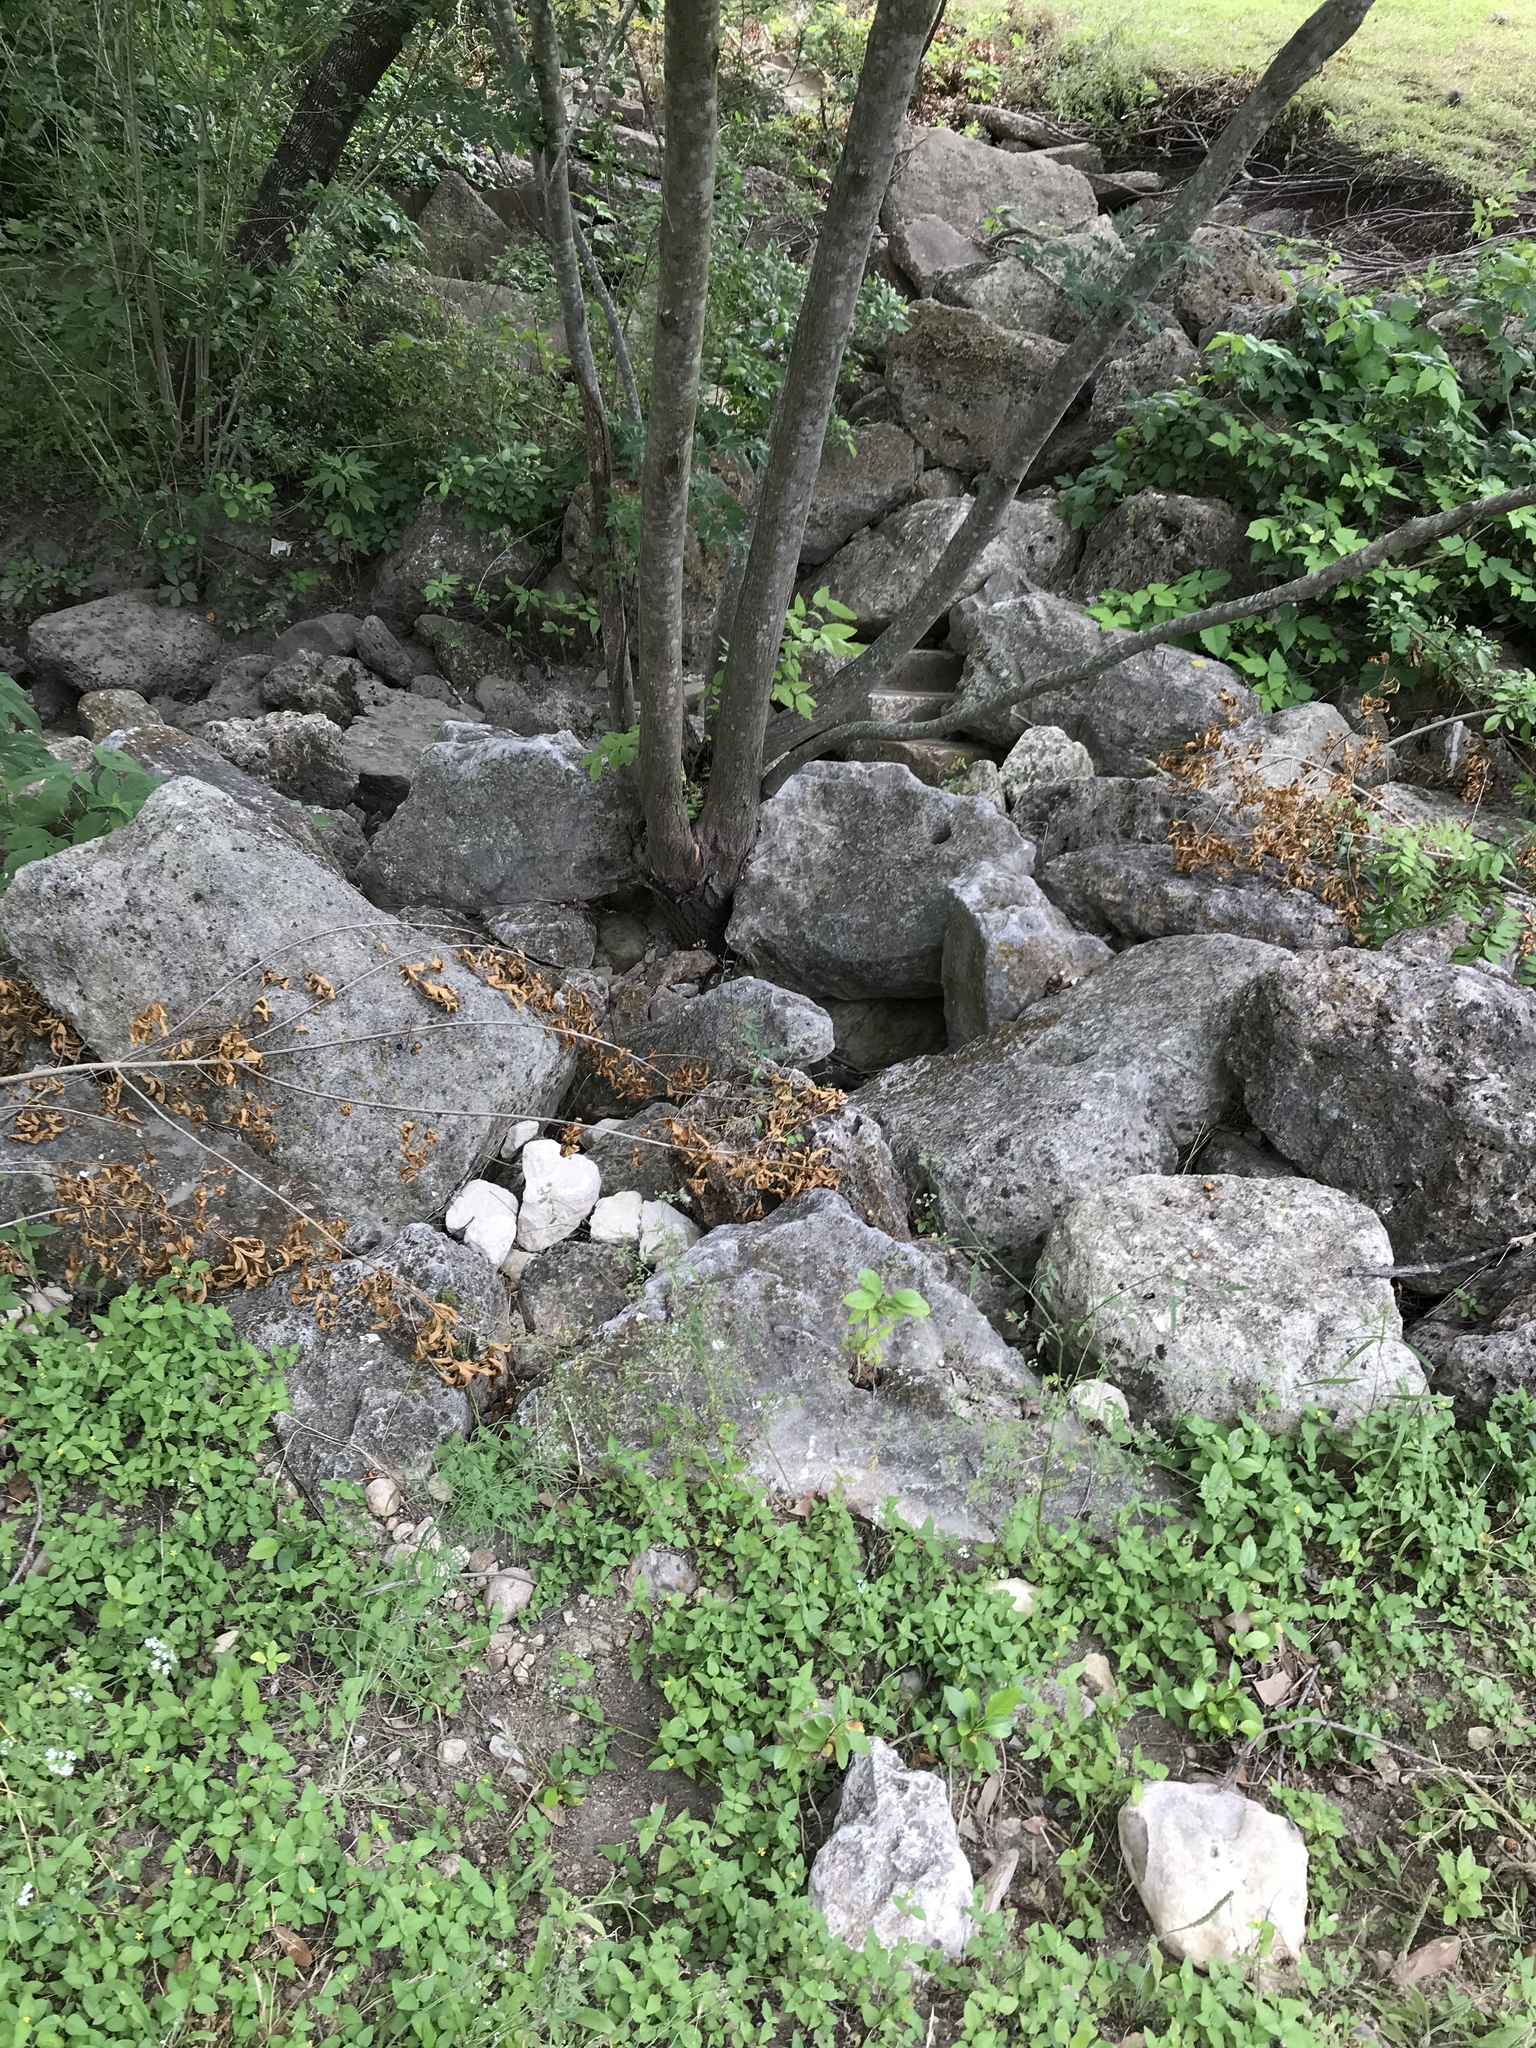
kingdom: Plantae
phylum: Tracheophyta
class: Magnoliopsida
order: Sapindales
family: Meliaceae
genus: Melia
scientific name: Melia azedarach
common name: Chinaberrytree
